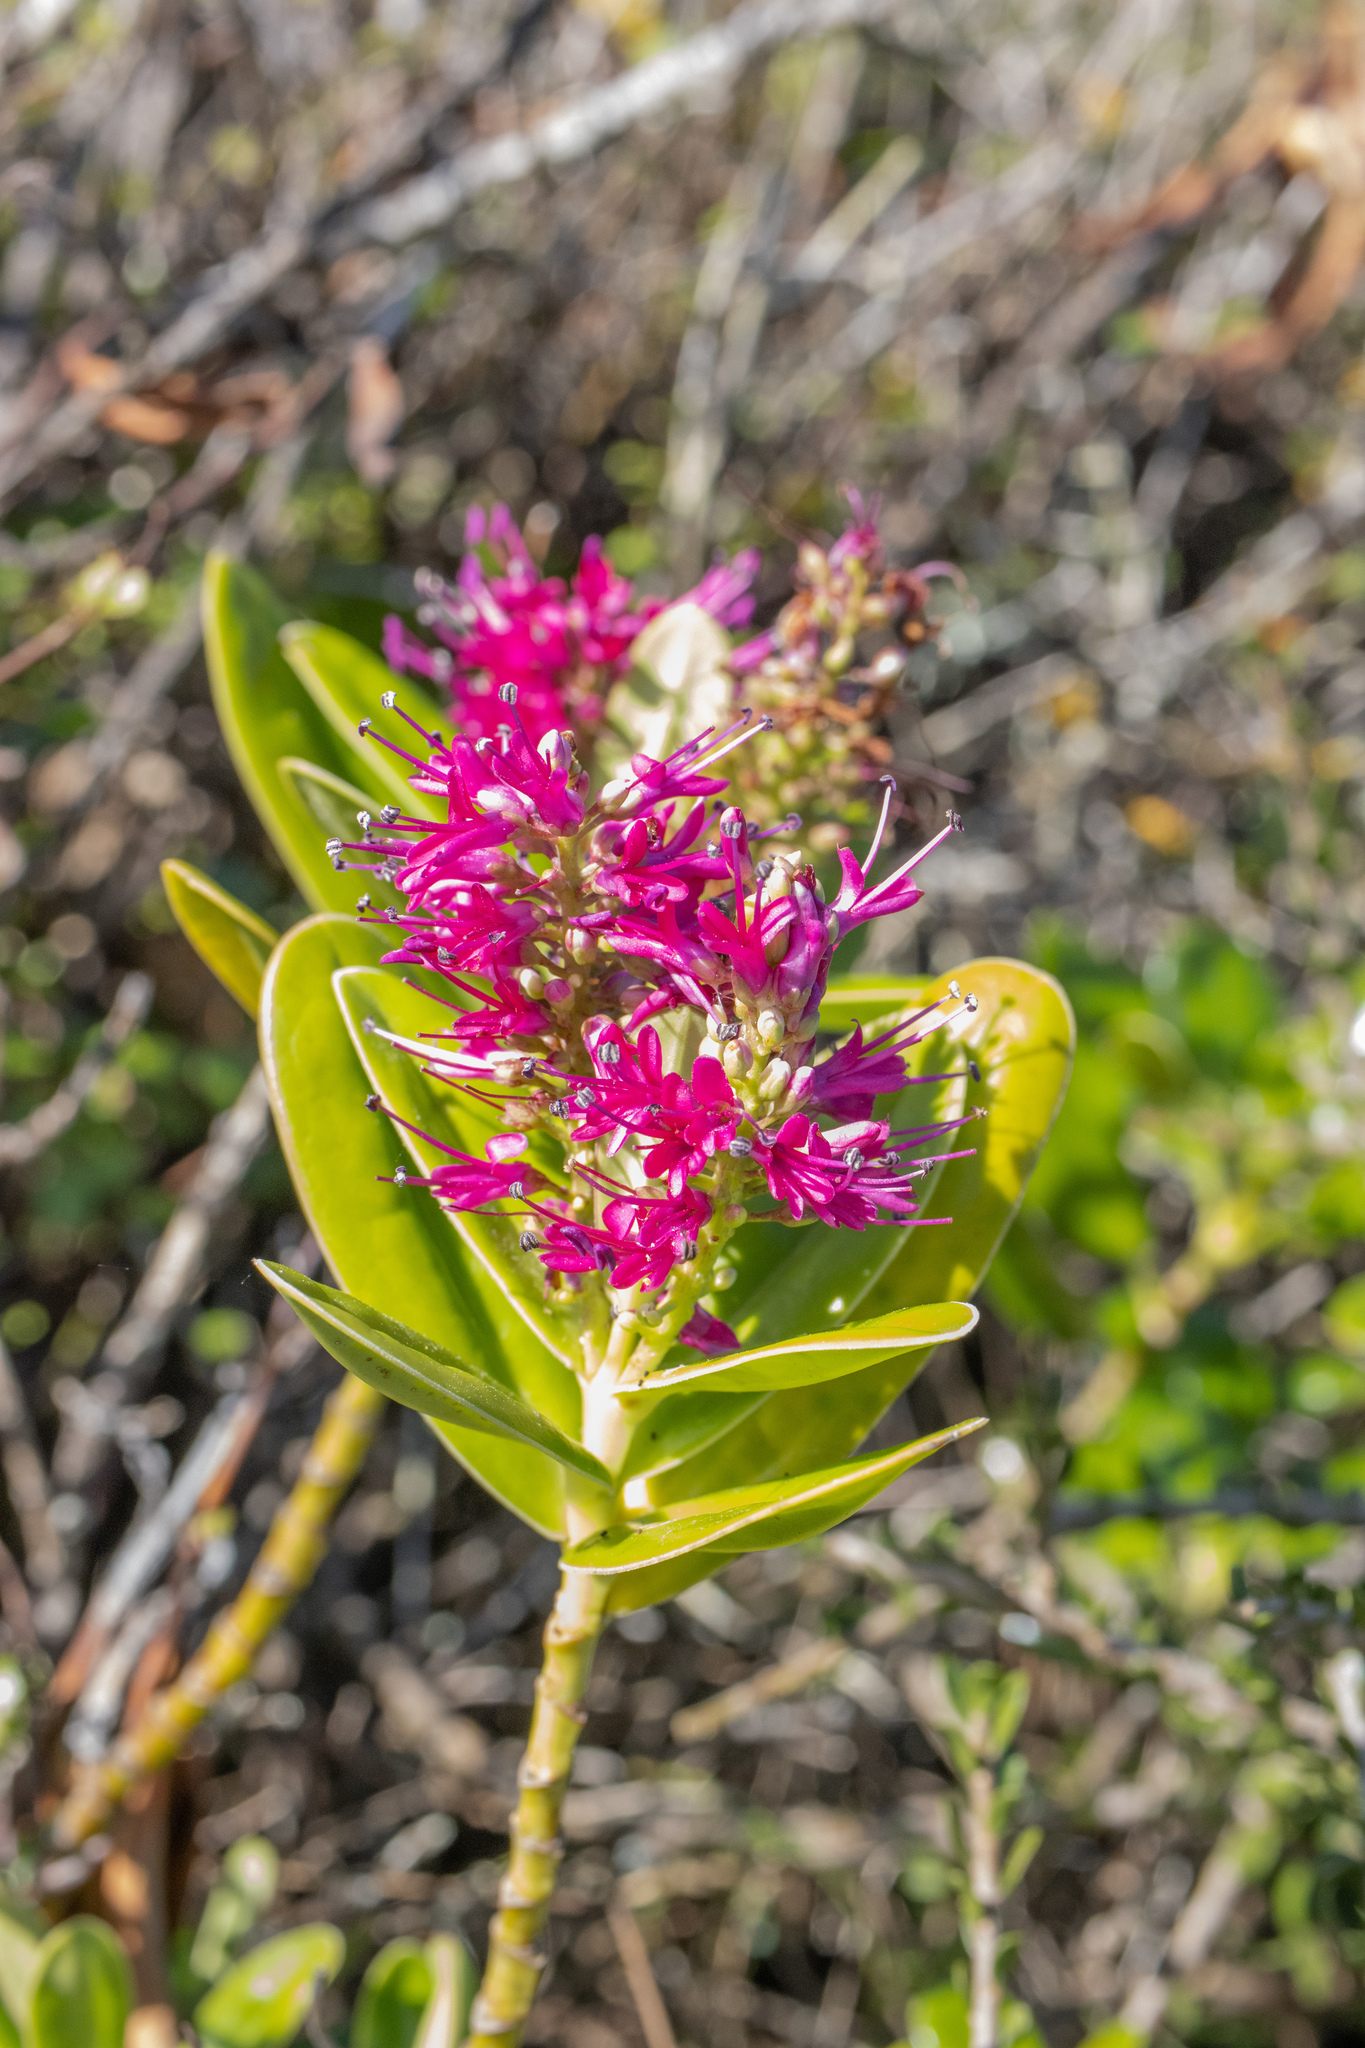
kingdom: Plantae
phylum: Tracheophyta
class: Magnoliopsida
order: Lamiales
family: Plantaginaceae
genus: Veronica
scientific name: Veronica speciosa
